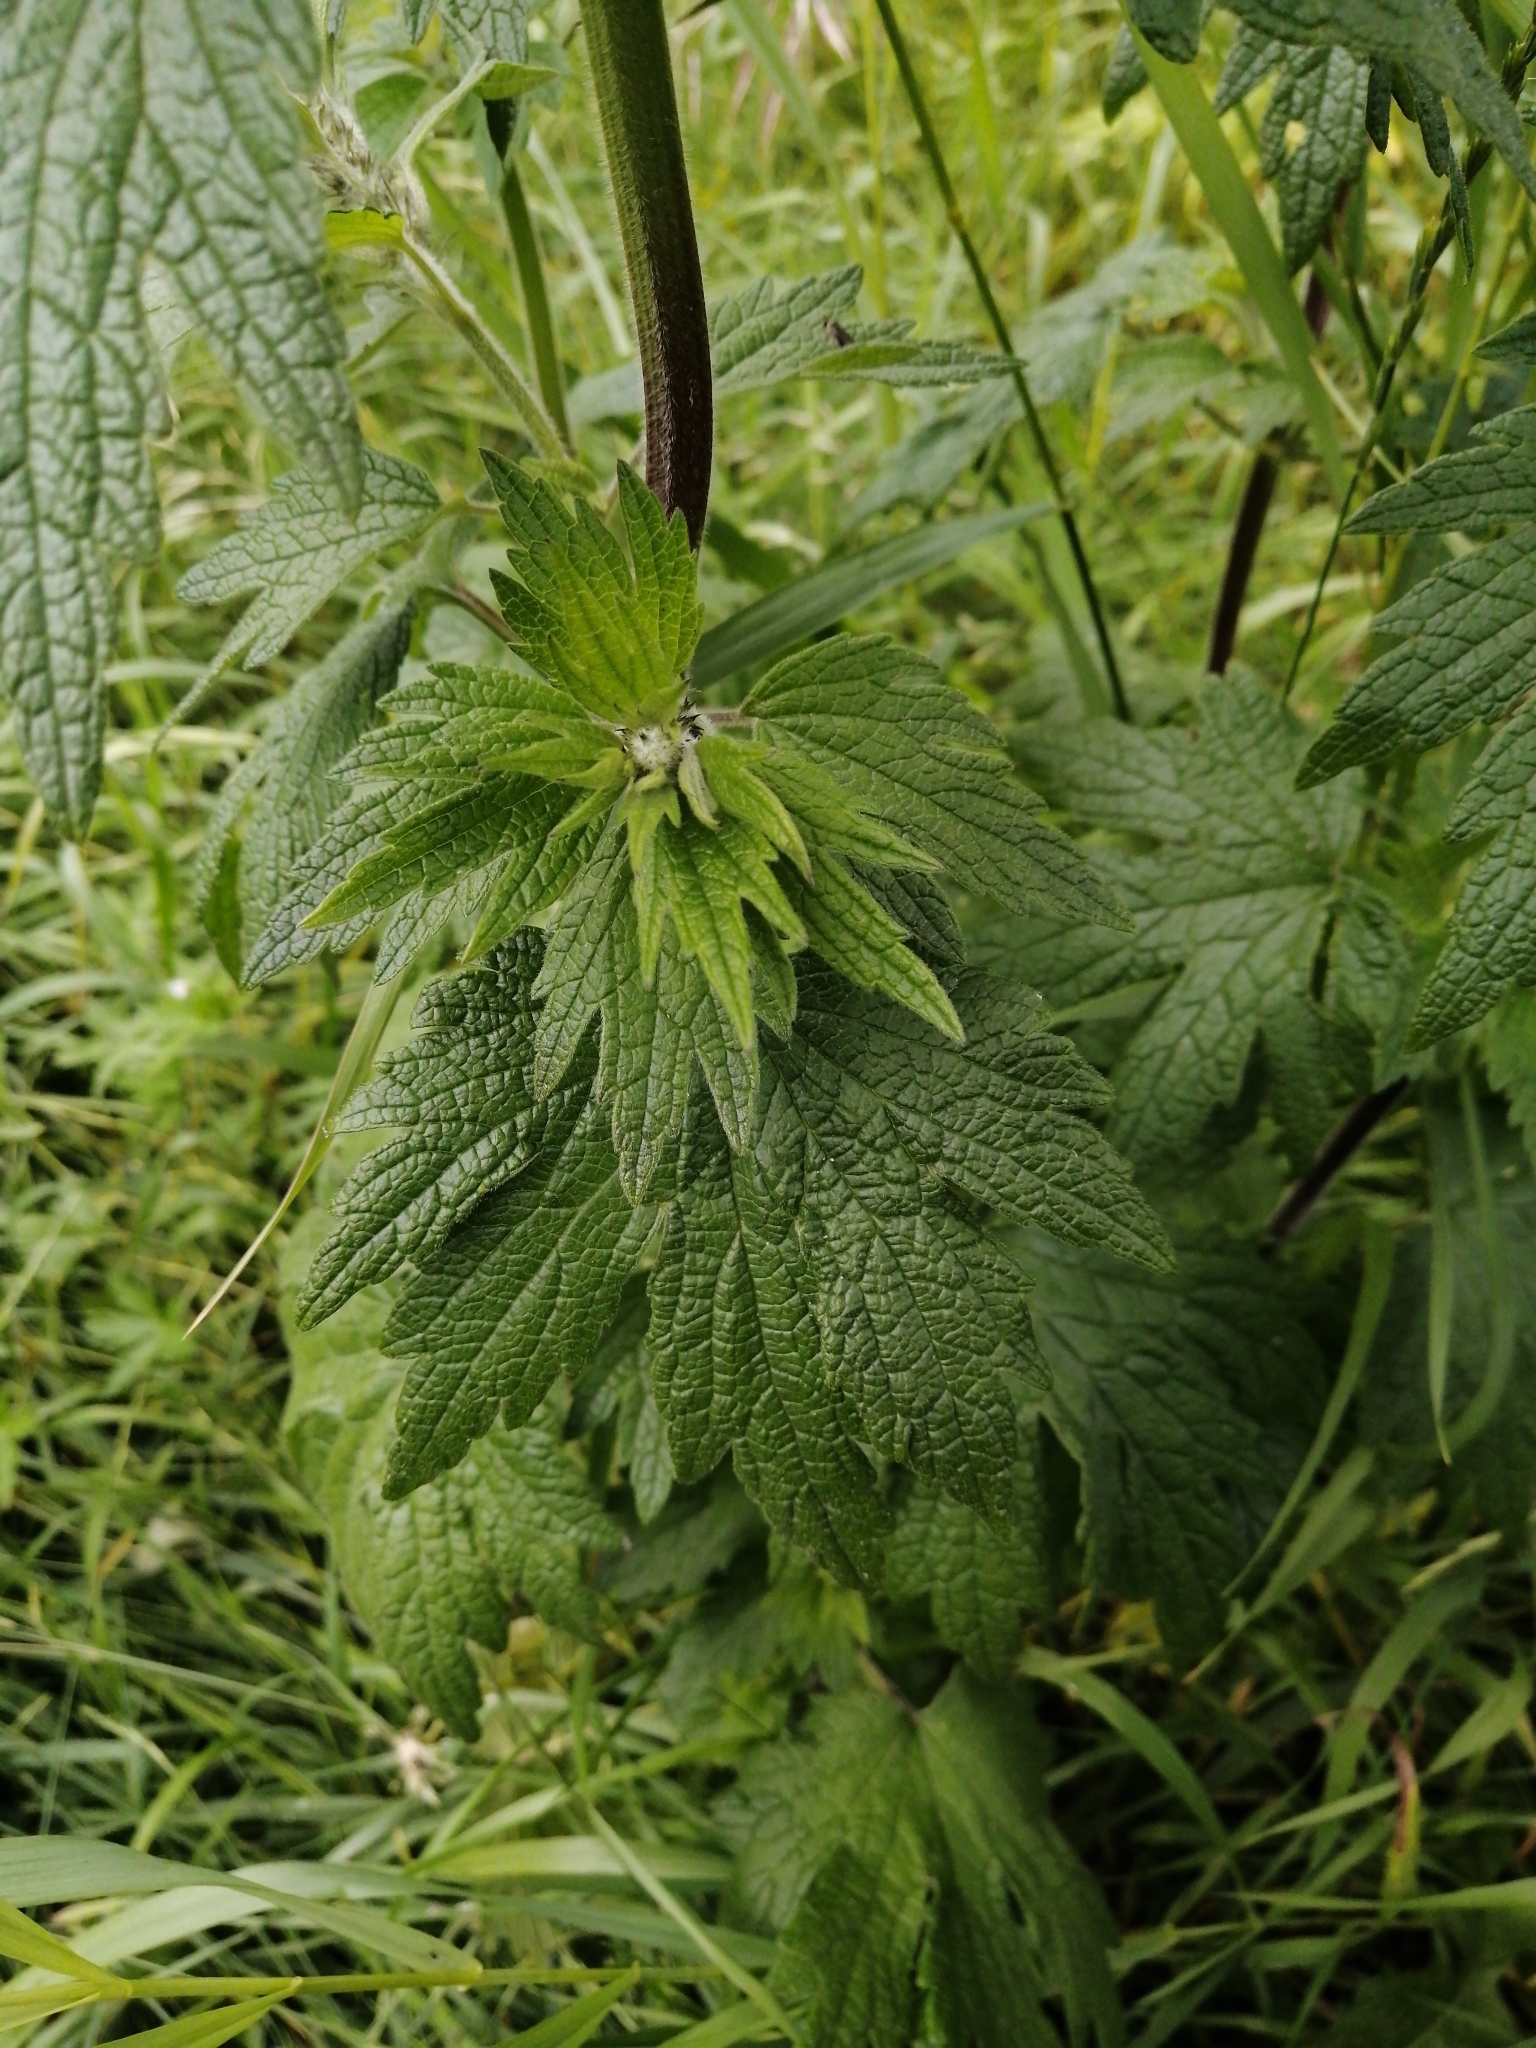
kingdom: Plantae
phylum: Tracheophyta
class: Magnoliopsida
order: Lamiales
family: Lamiaceae
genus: Leonurus
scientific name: Leonurus quinquelobatus
